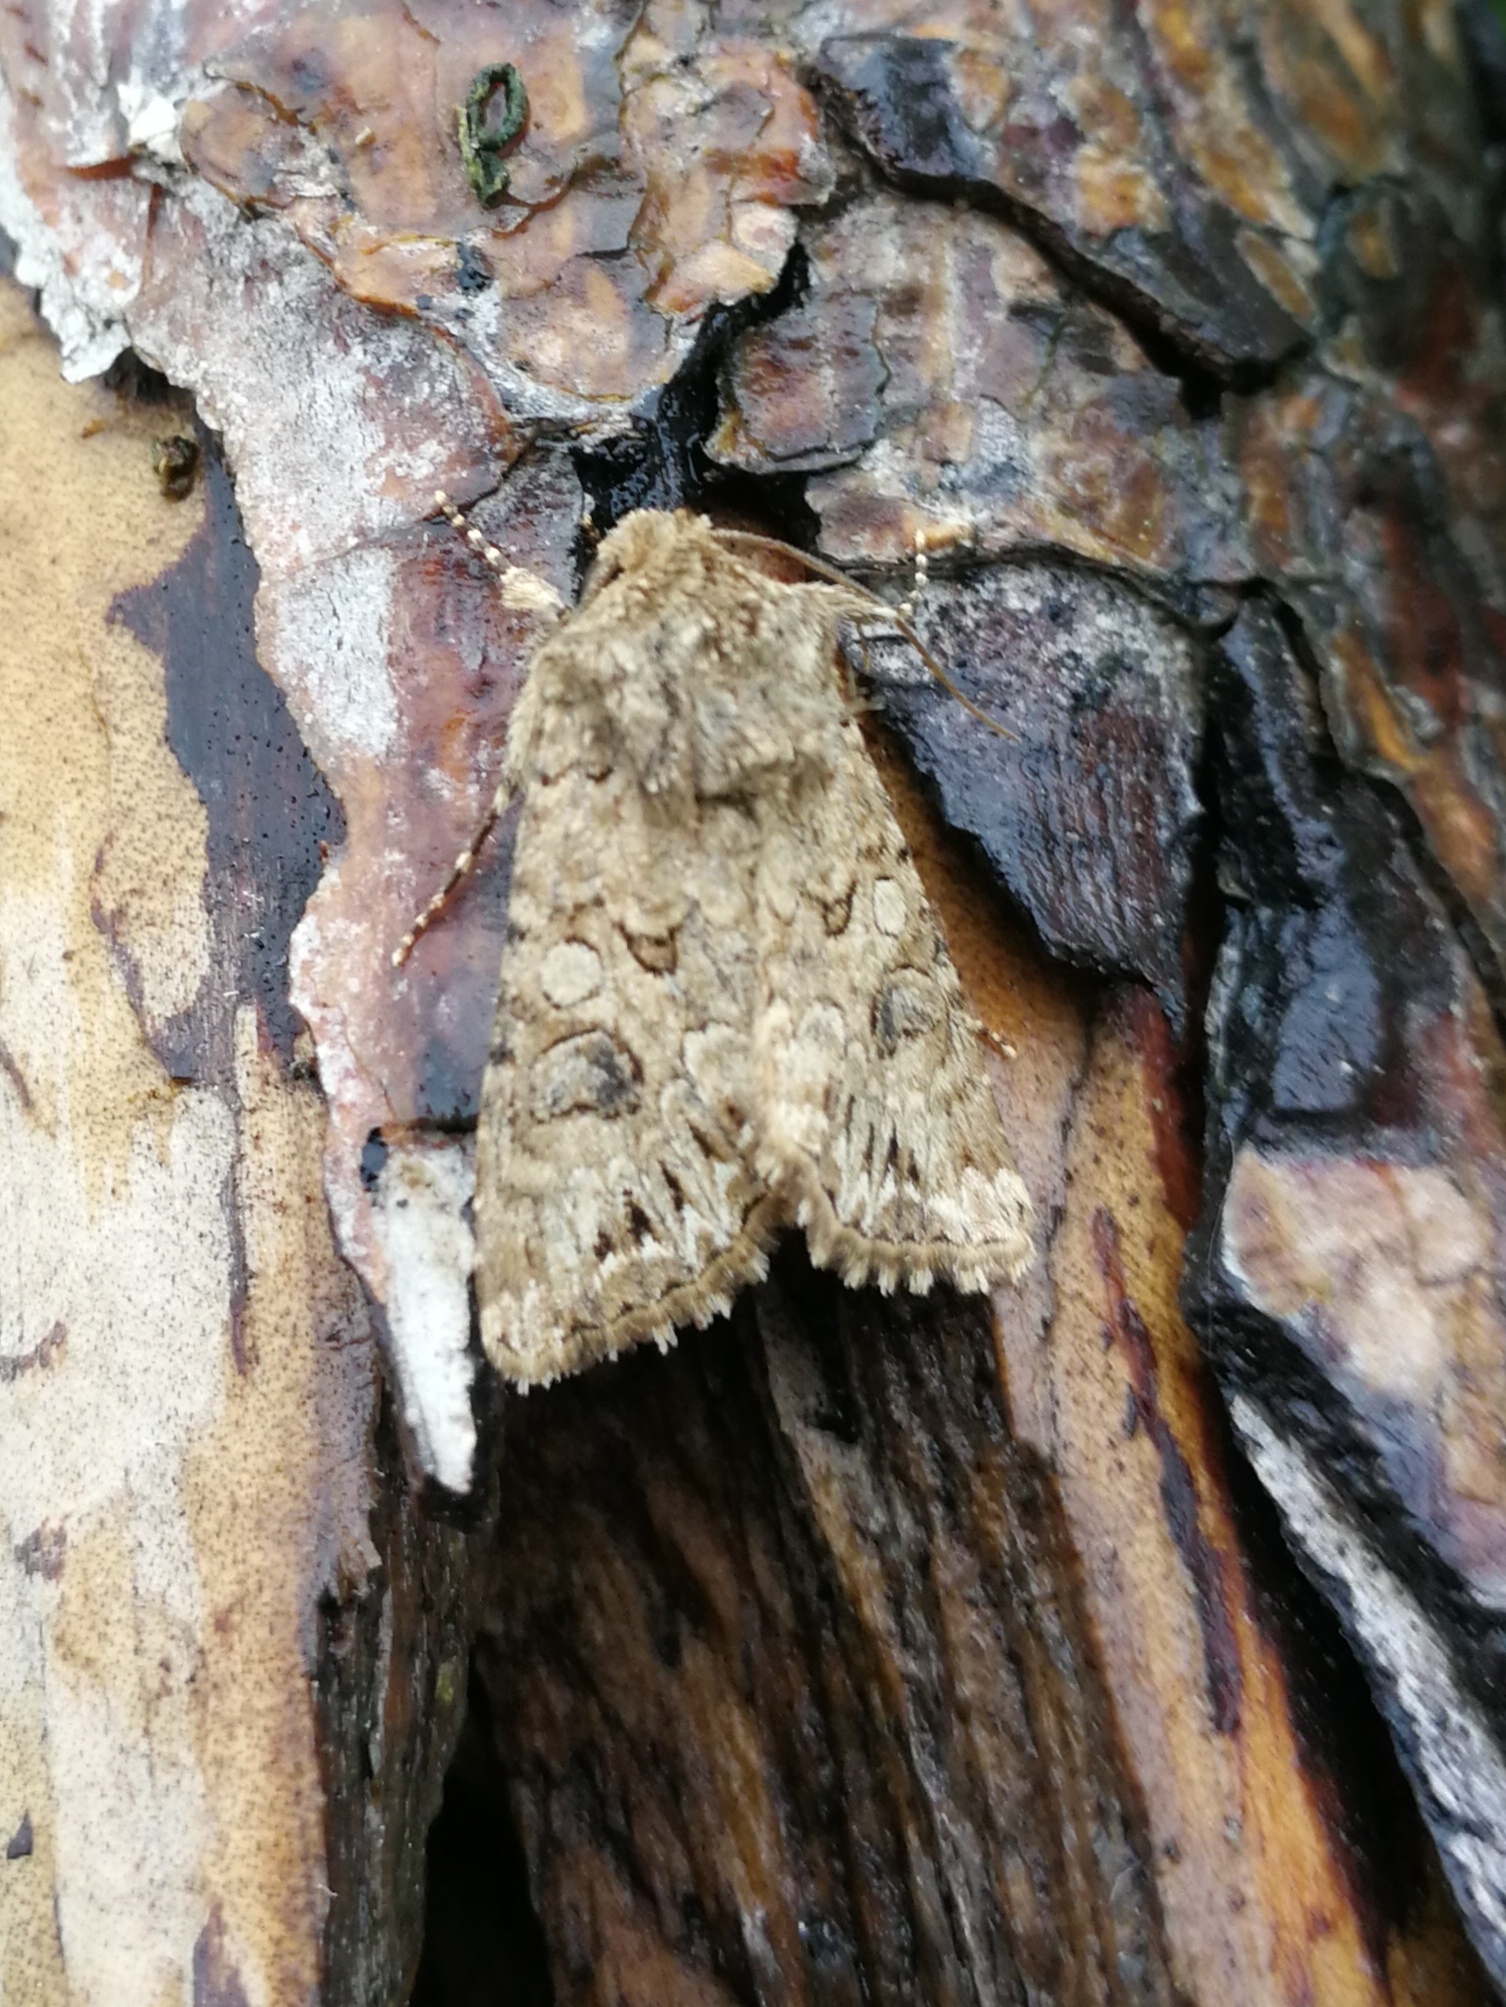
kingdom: Animalia
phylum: Arthropoda
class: Insecta
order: Lepidoptera
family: Noctuidae
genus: Anarta
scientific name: Anarta pugnax
